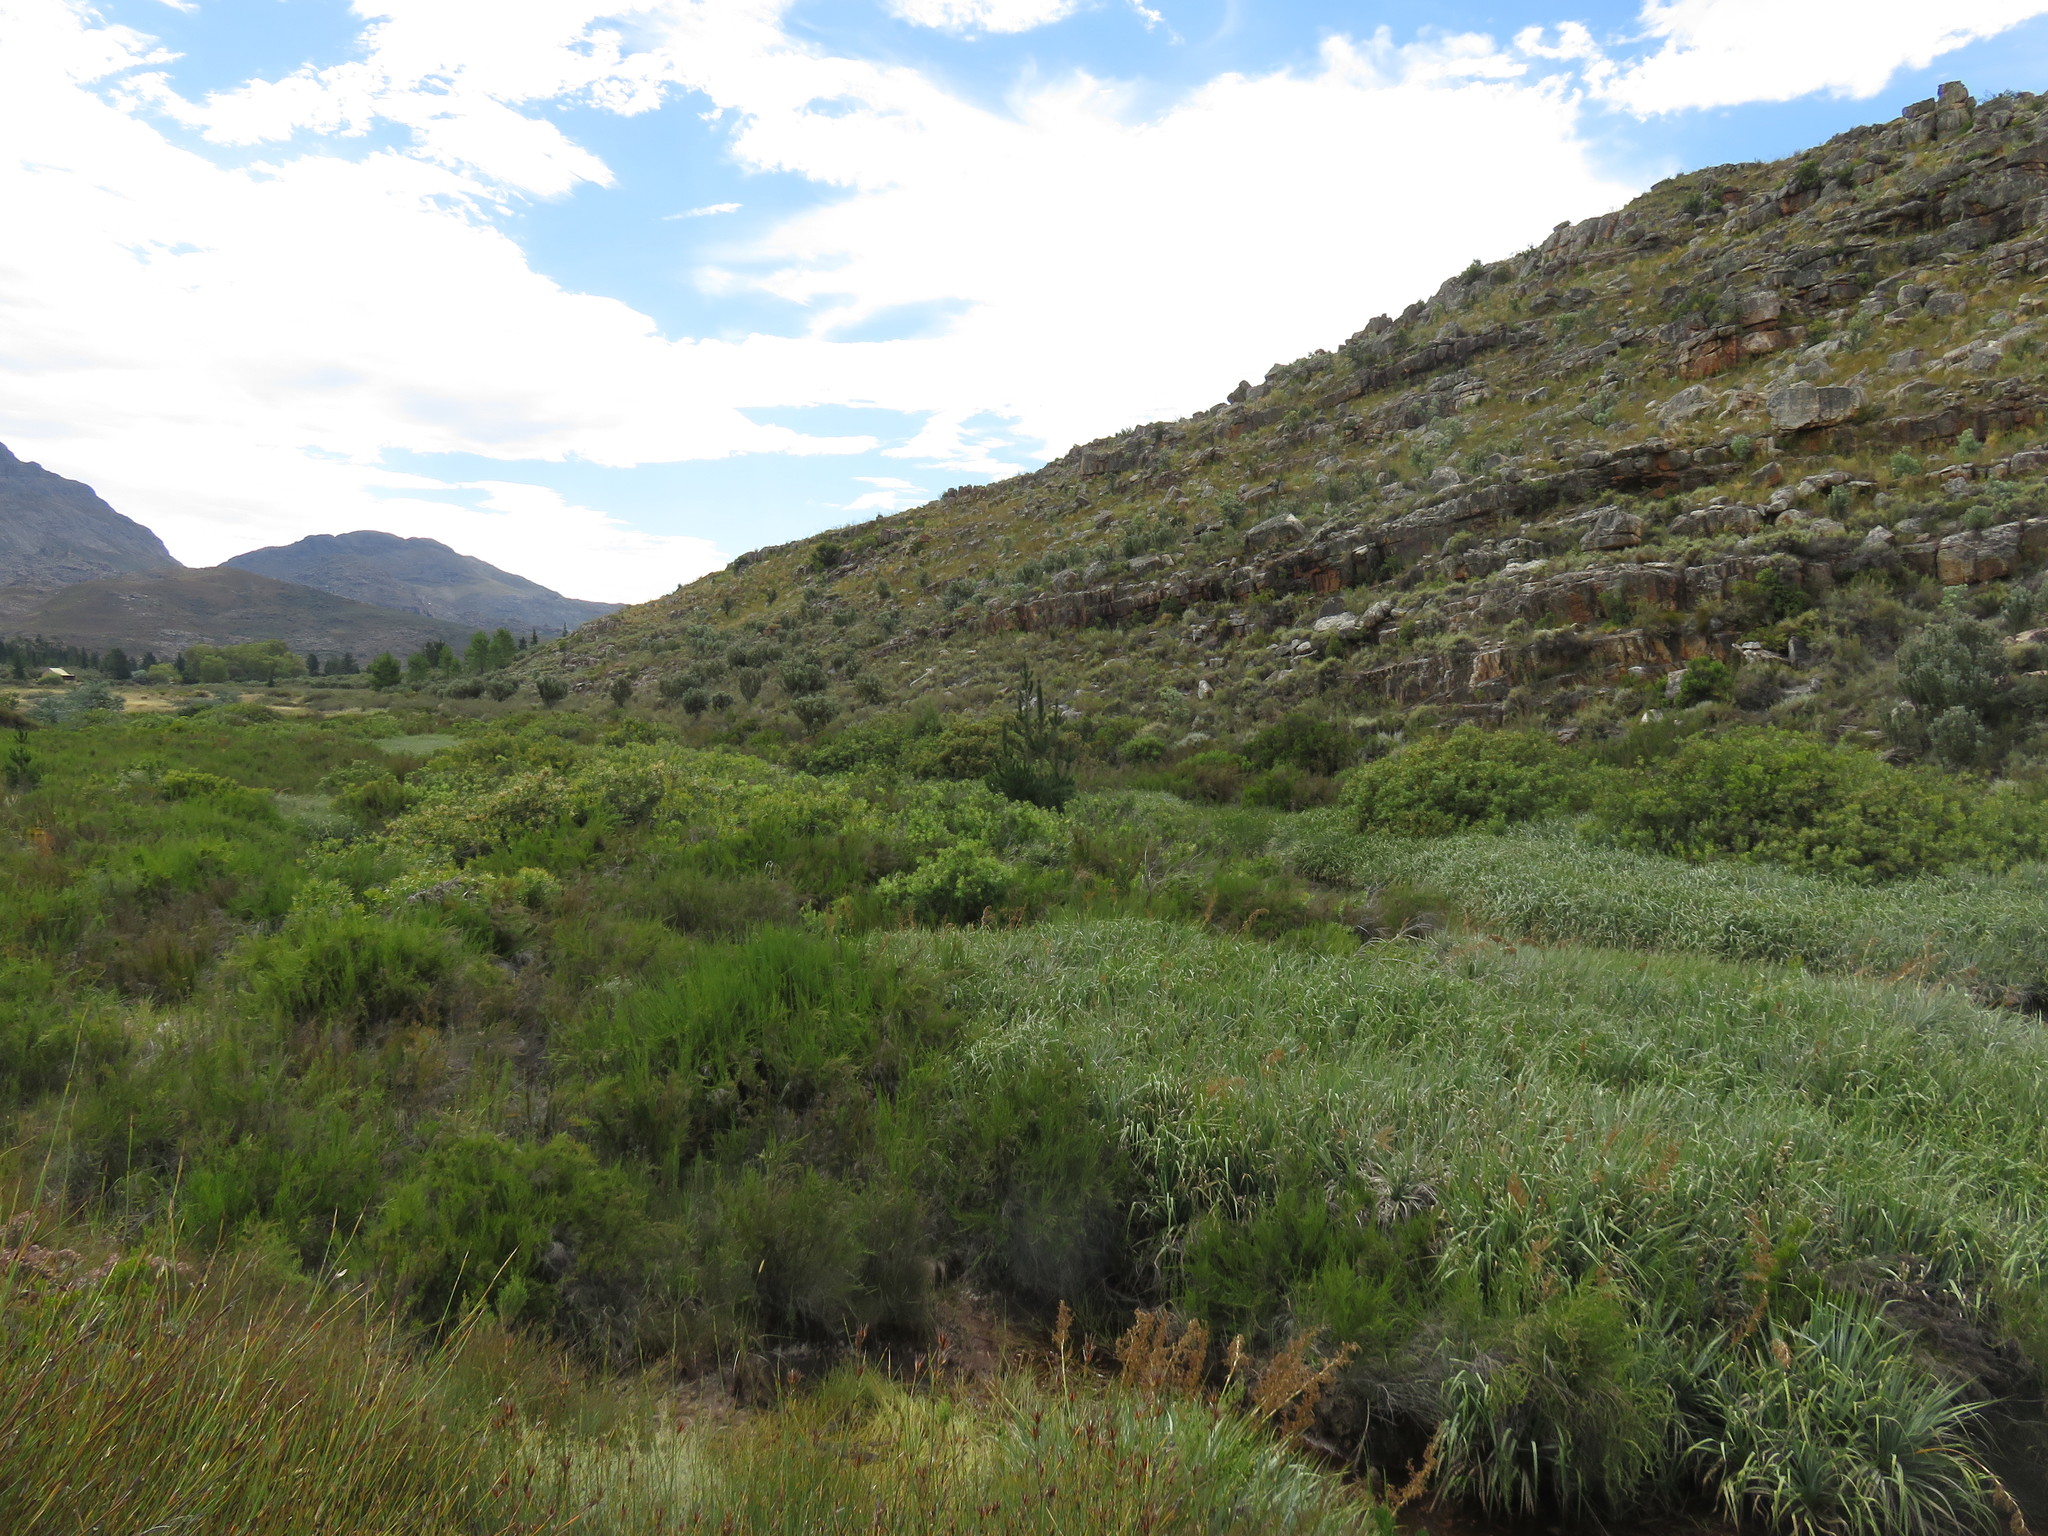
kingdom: Plantae
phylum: Tracheophyta
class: Liliopsida
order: Poales
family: Thurniaceae
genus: Prionium
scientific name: Prionium serratum
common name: Palmiet
